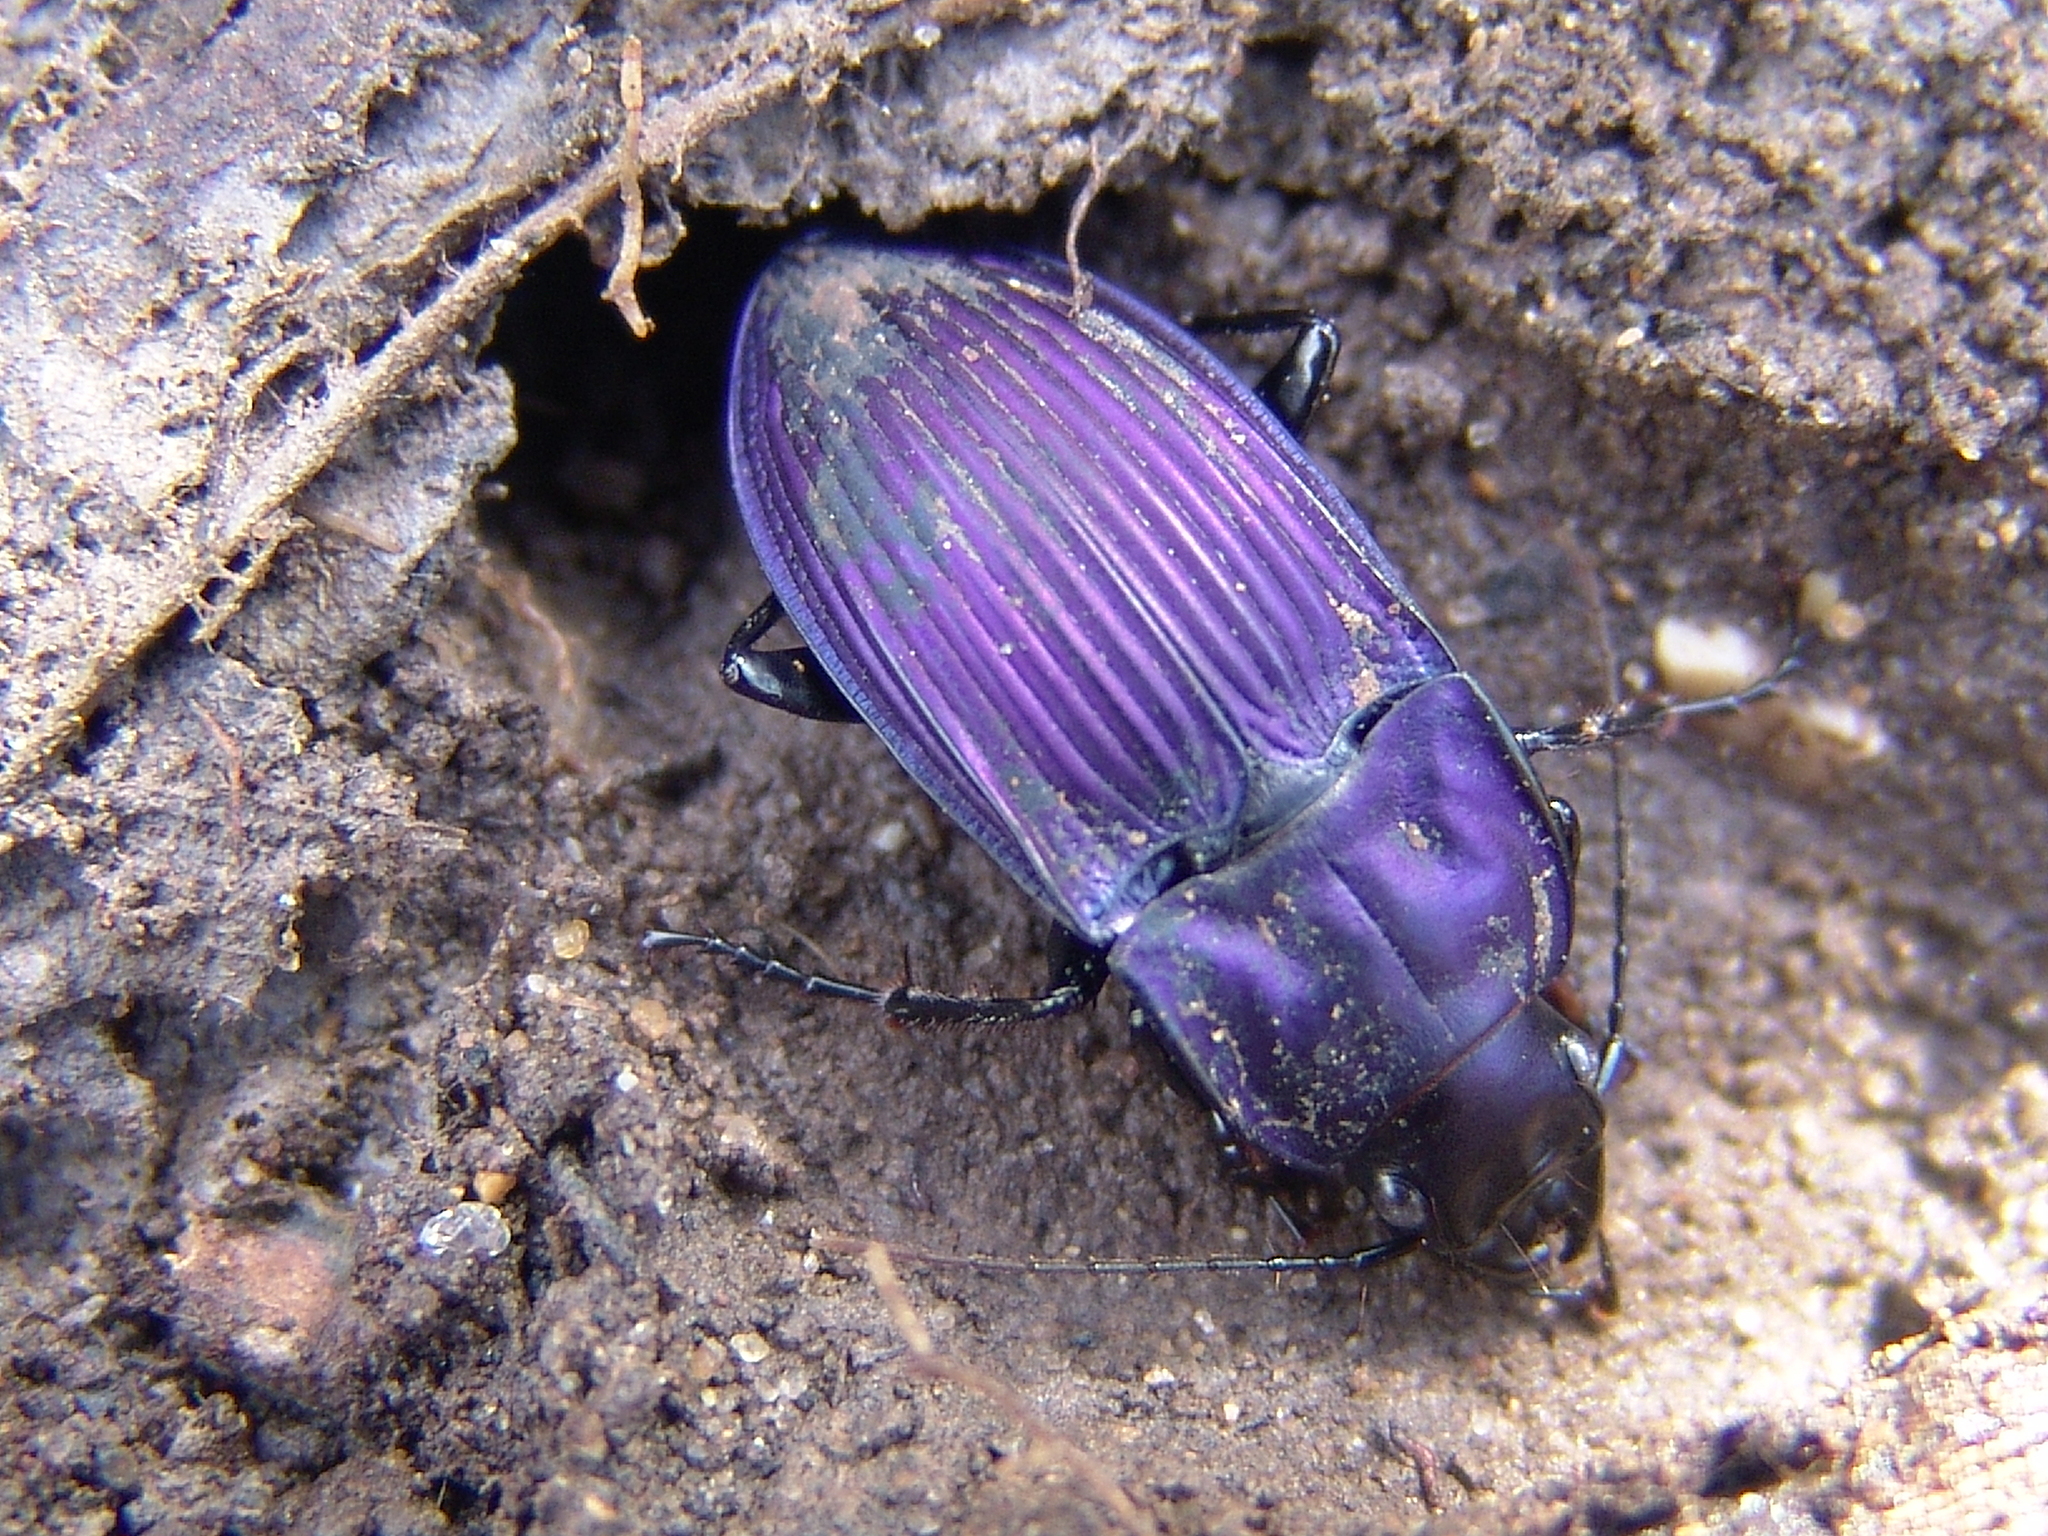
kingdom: Animalia
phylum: Arthropoda
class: Insecta
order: Coleoptera
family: Carabidae
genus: Dicaelus
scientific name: Dicaelus purpuratus
